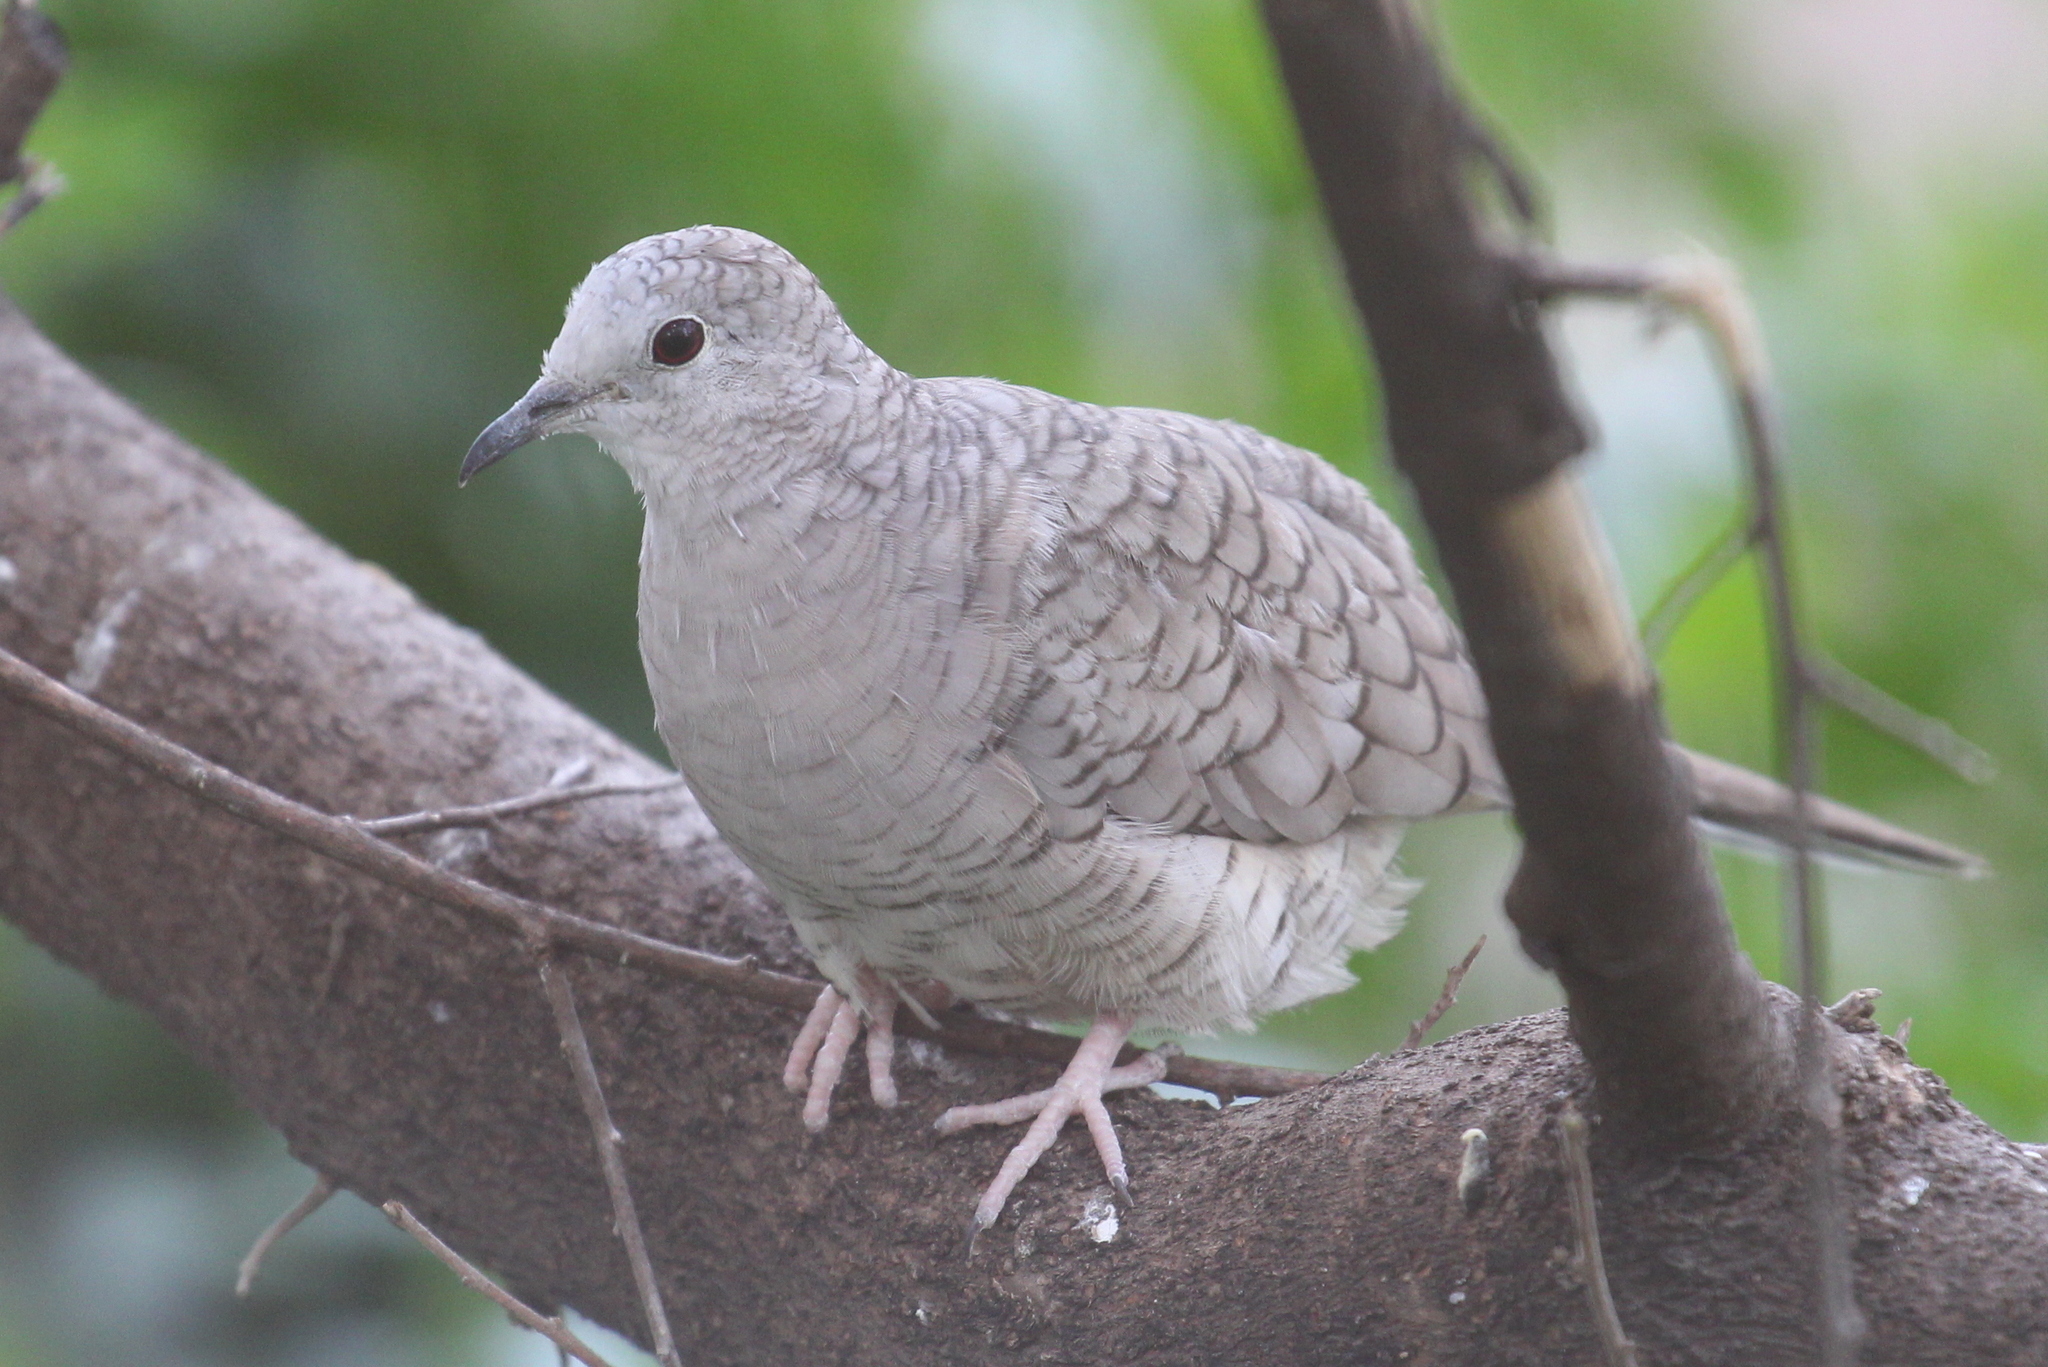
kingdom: Animalia
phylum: Chordata
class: Aves
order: Columbiformes
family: Columbidae
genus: Columbina
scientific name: Columbina inca
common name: Inca dove
